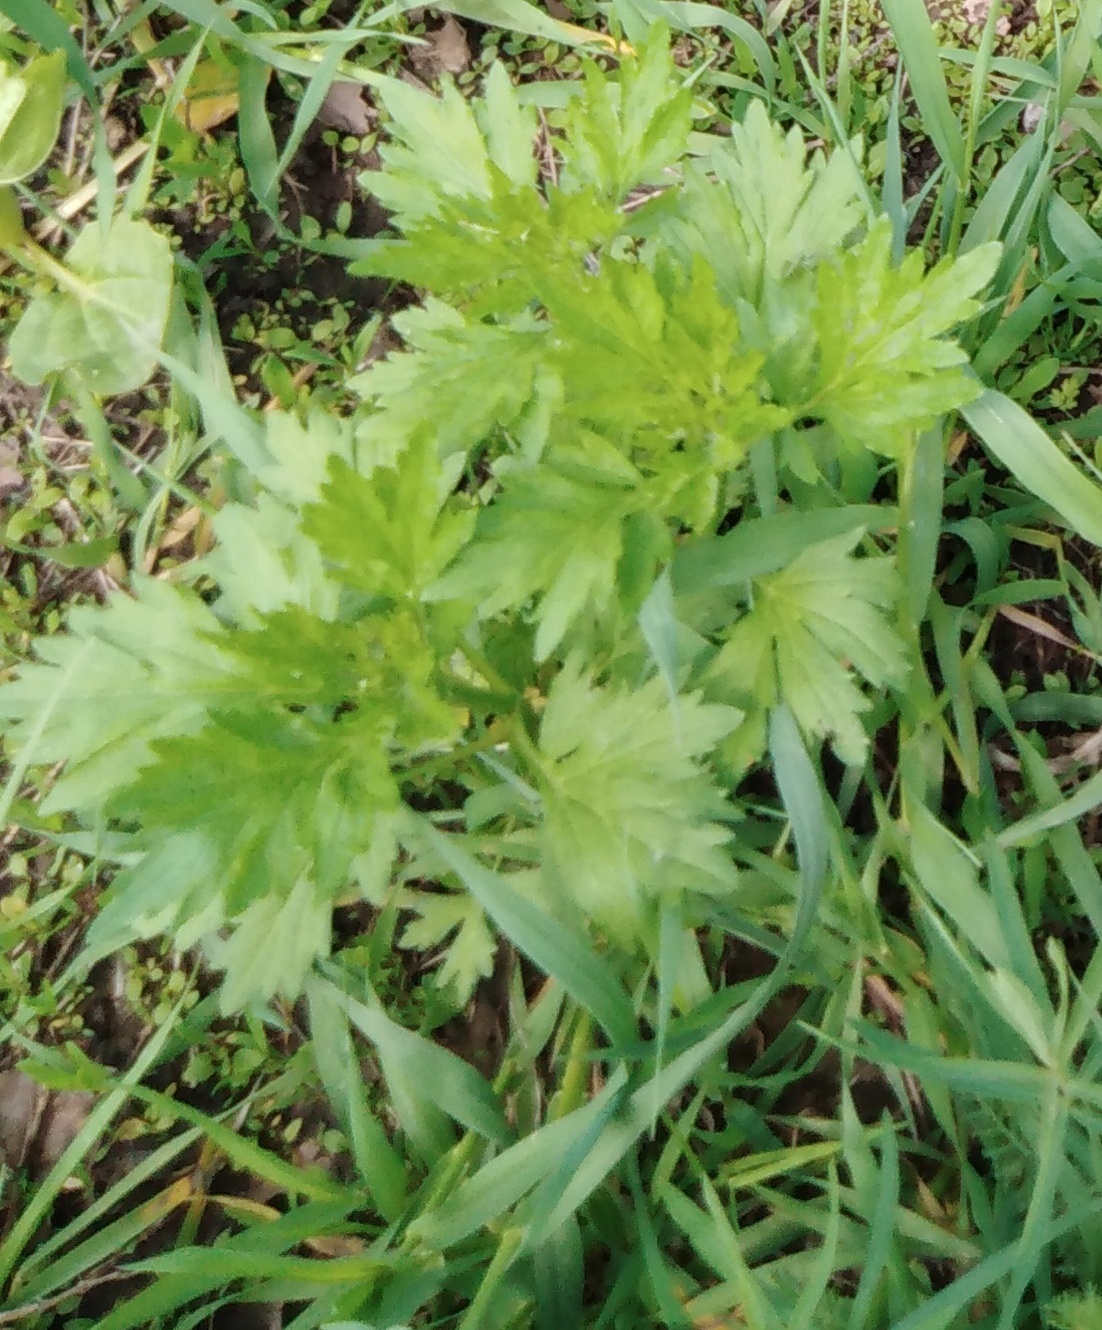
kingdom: Plantae
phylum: Tracheophyta
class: Magnoliopsida
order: Asterales
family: Asteraceae
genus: Artemisia
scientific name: Artemisia vulgaris
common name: Mugwort
